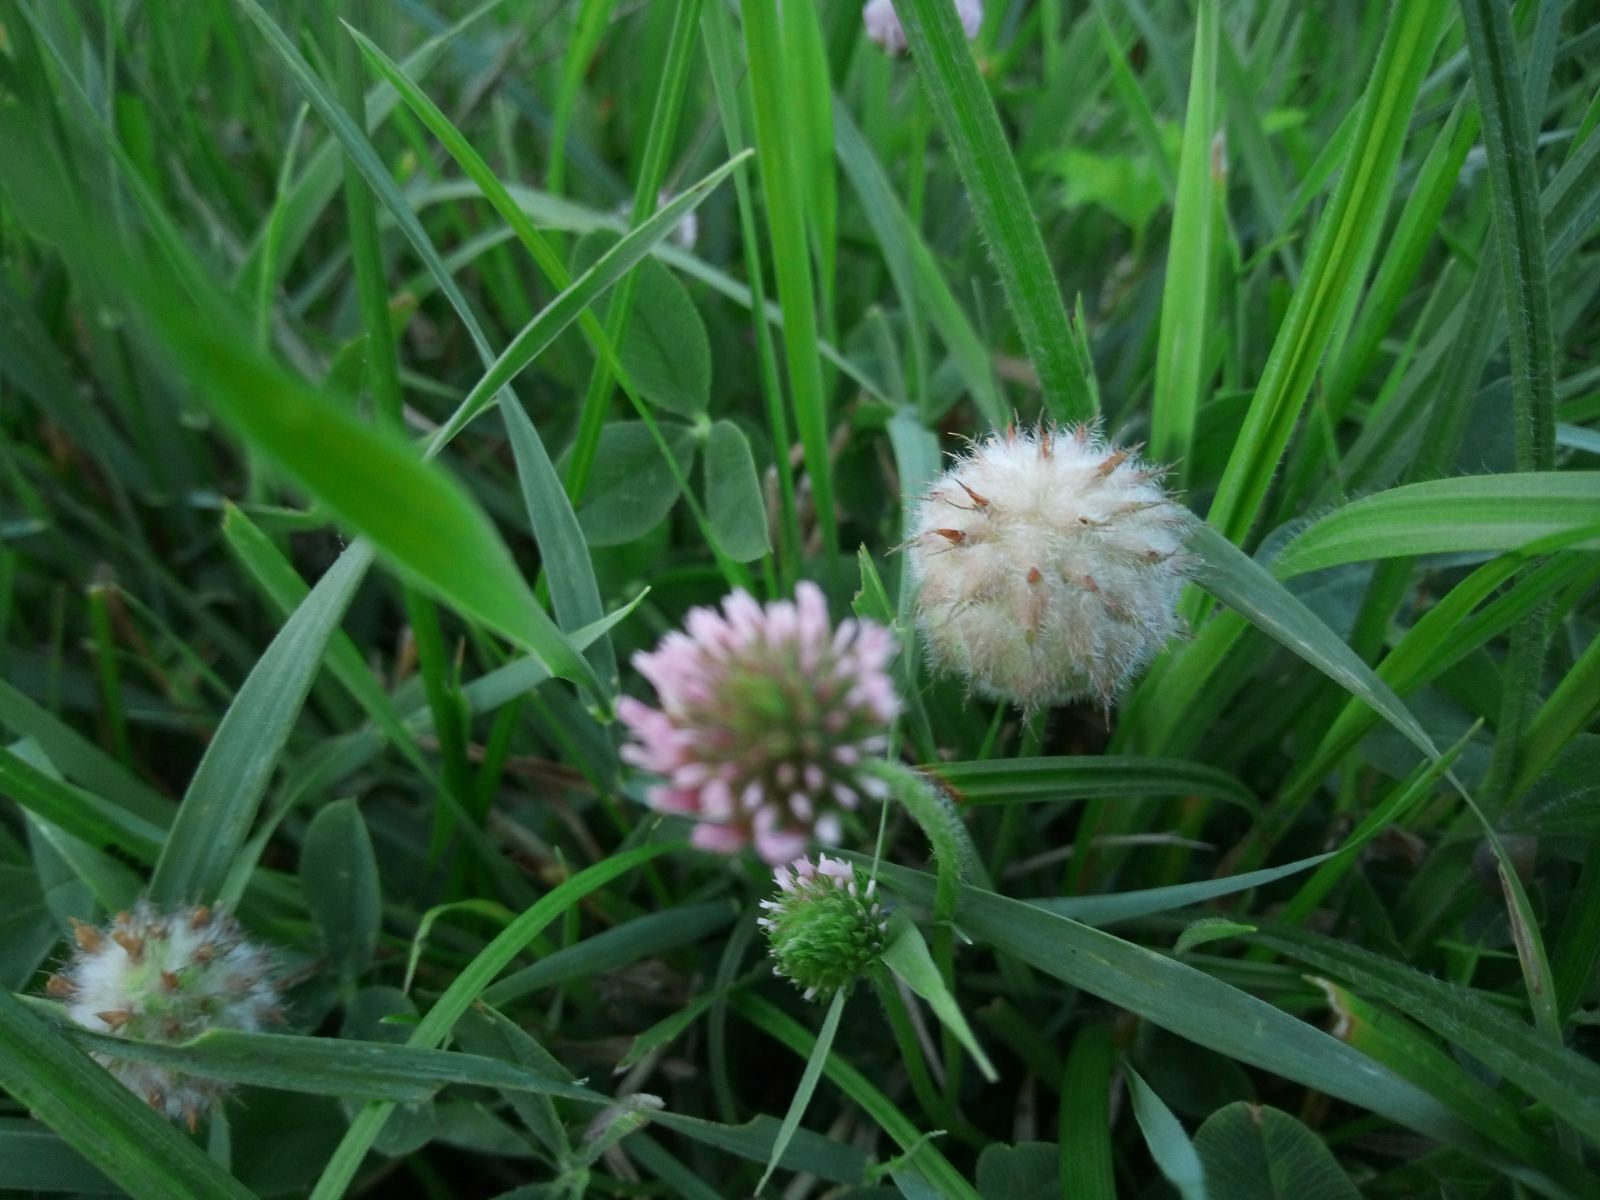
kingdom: Plantae
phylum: Tracheophyta
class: Magnoliopsida
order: Fabales
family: Fabaceae
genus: Trifolium
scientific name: Trifolium fragiferum
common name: Strawberry clover
